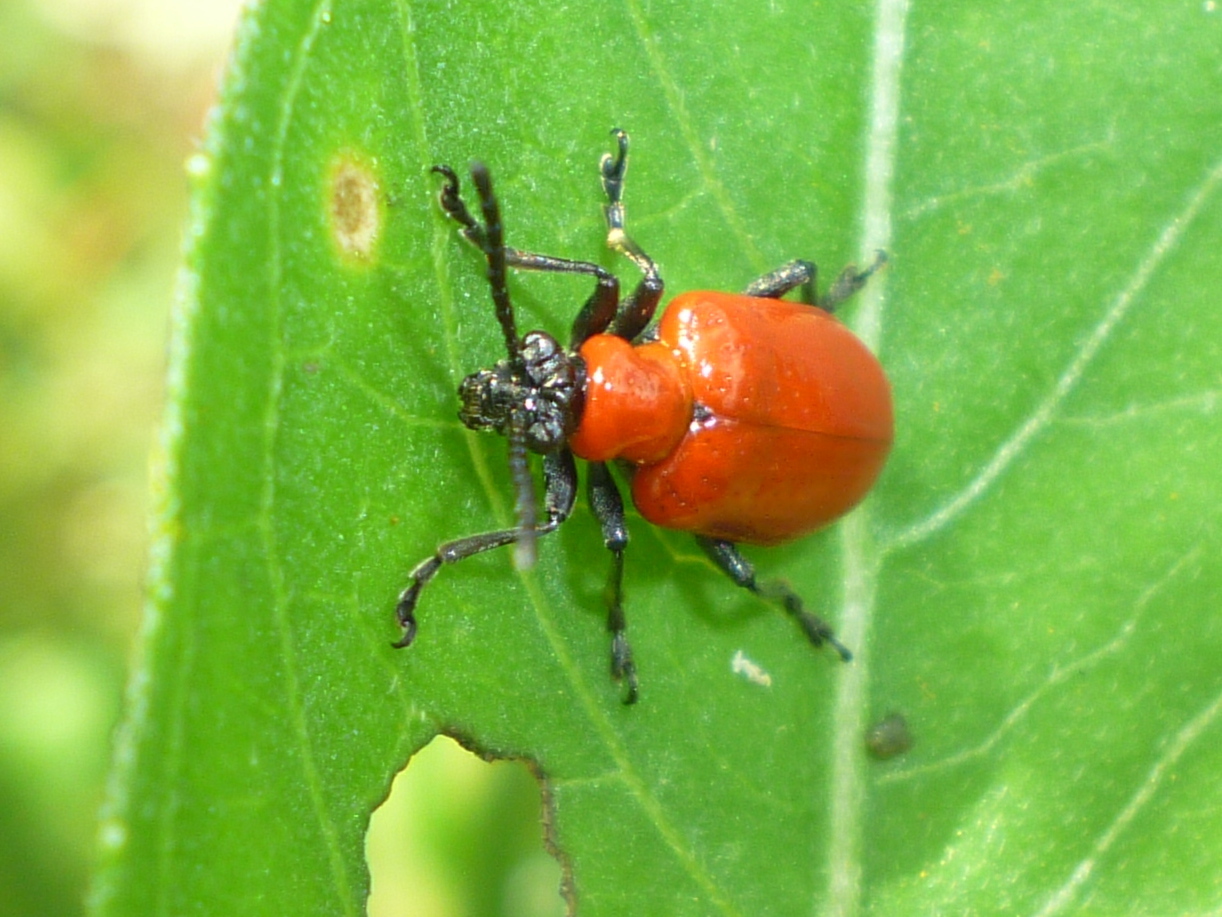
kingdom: Animalia
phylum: Arthropoda
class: Insecta
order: Coleoptera
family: Chrysomelidae
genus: Lilioceris
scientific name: Lilioceris lilii
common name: Lily beetle
